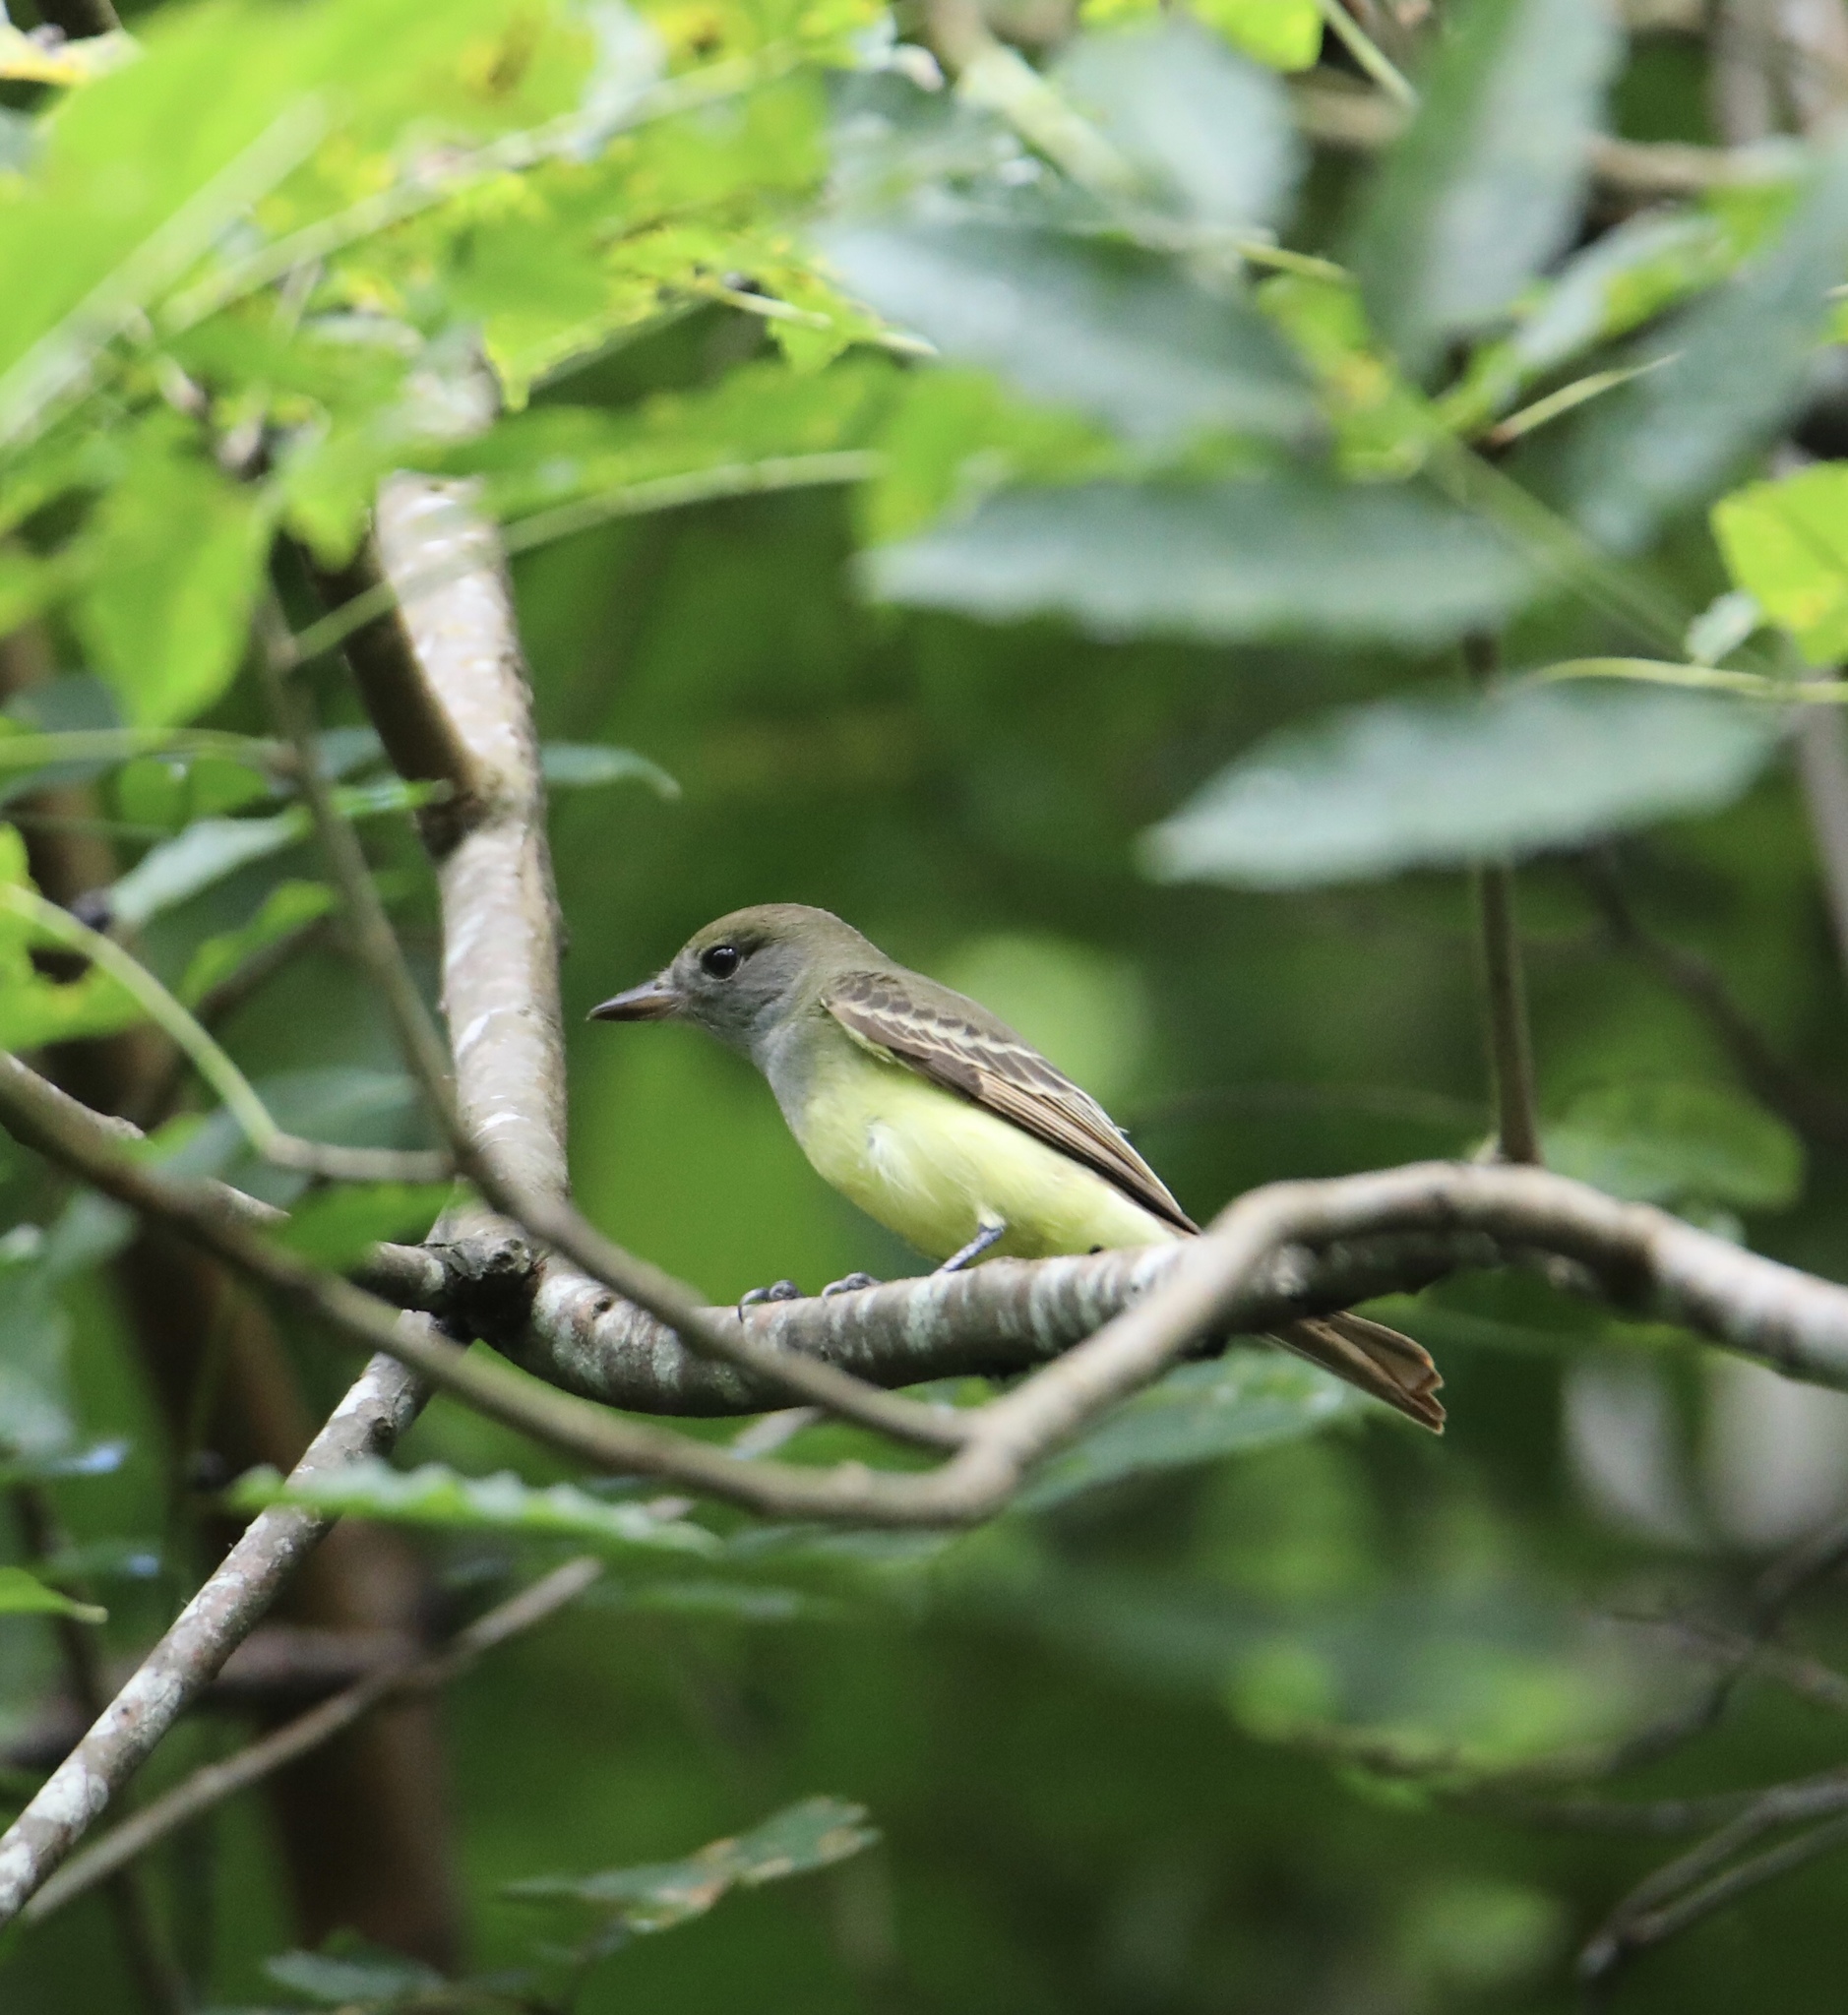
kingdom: Animalia
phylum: Chordata
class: Aves
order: Passeriformes
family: Tyrannidae
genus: Myiarchus
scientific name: Myiarchus crinitus
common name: Great crested flycatcher
